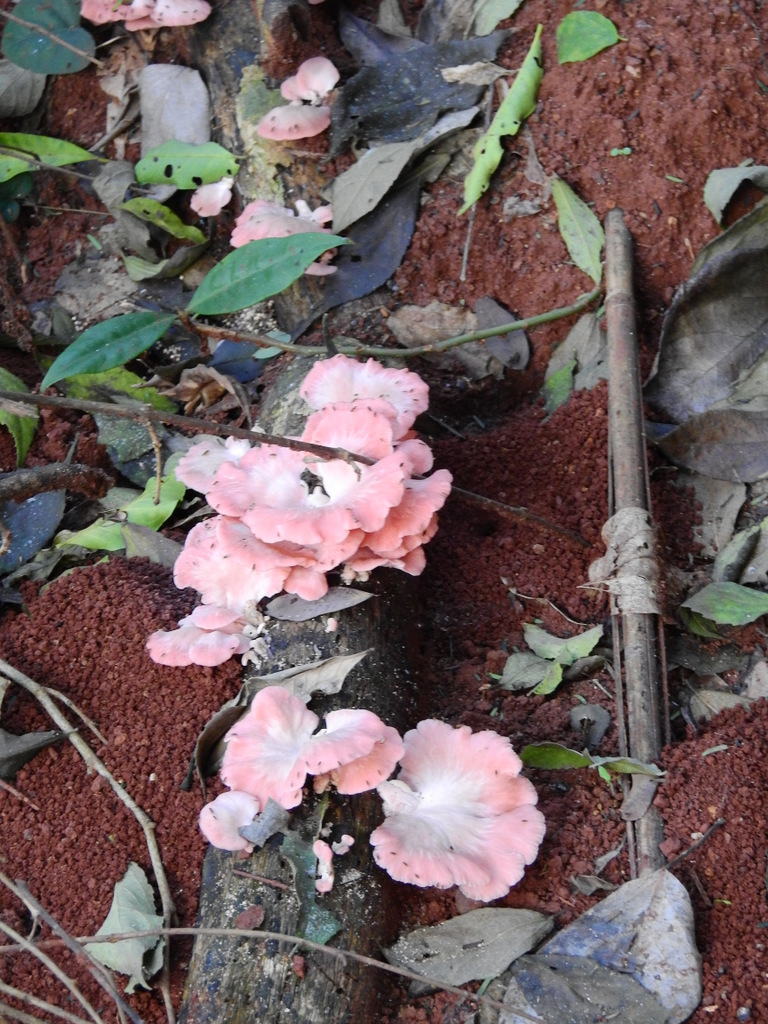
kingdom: Fungi
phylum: Basidiomycota
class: Agaricomycetes
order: Agaricales
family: Pleurotaceae
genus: Pleurotus
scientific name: Pleurotus djamor
